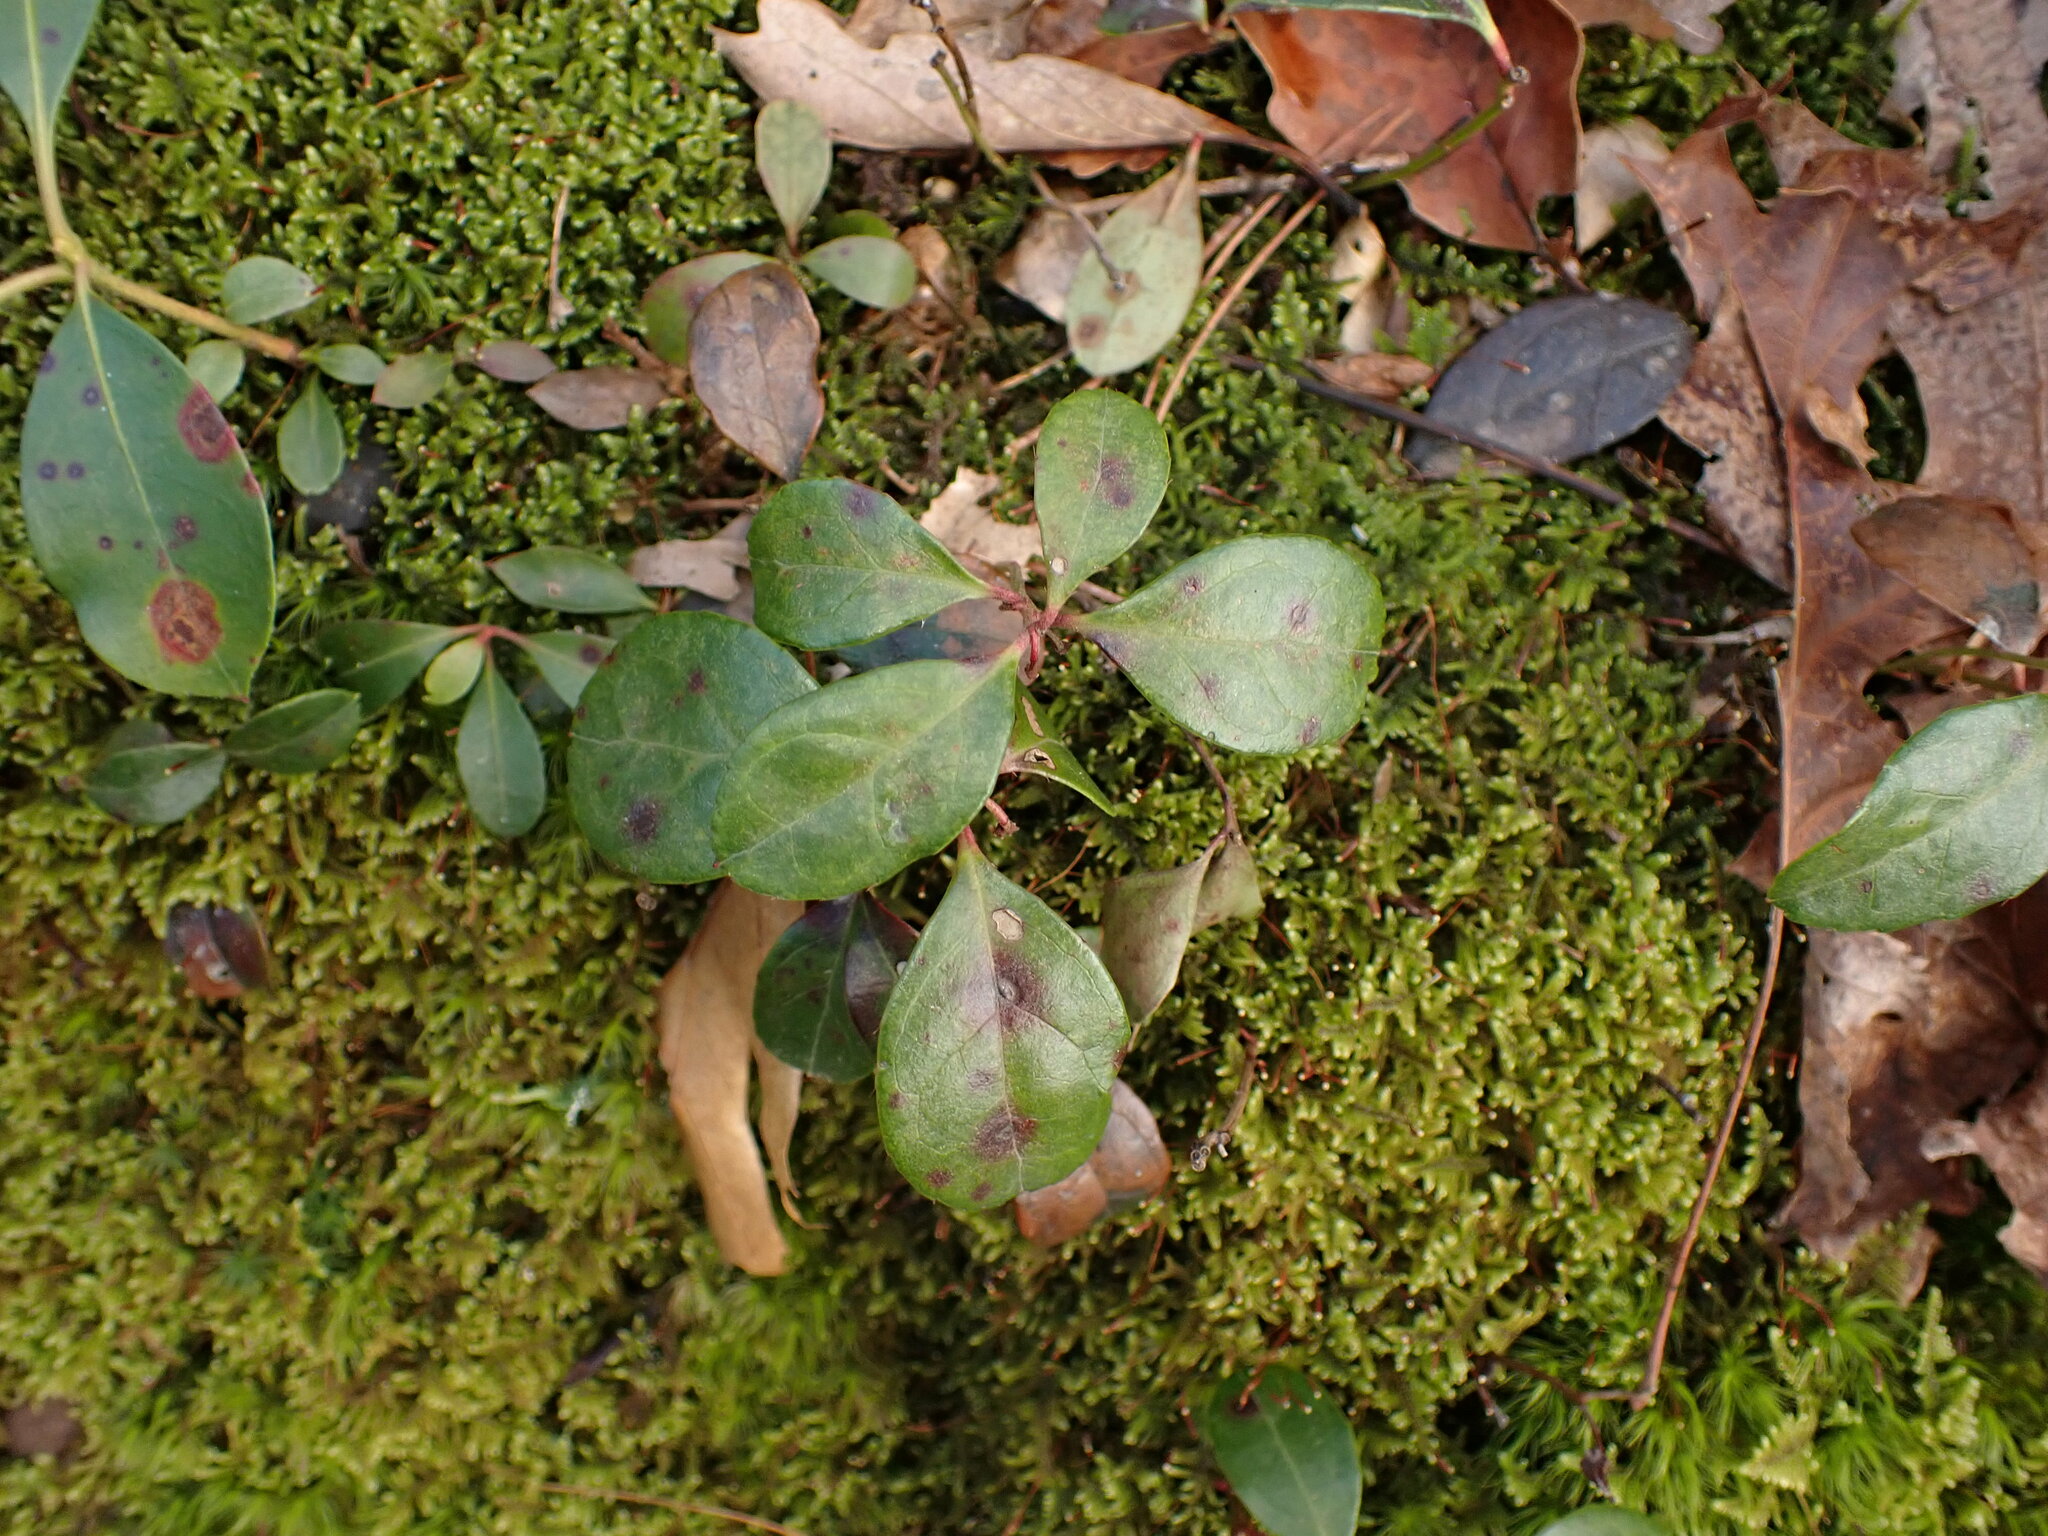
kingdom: Plantae
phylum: Tracheophyta
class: Magnoliopsida
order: Ericales
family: Ericaceae
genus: Gaultheria
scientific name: Gaultheria procumbens
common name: Checkerberry
